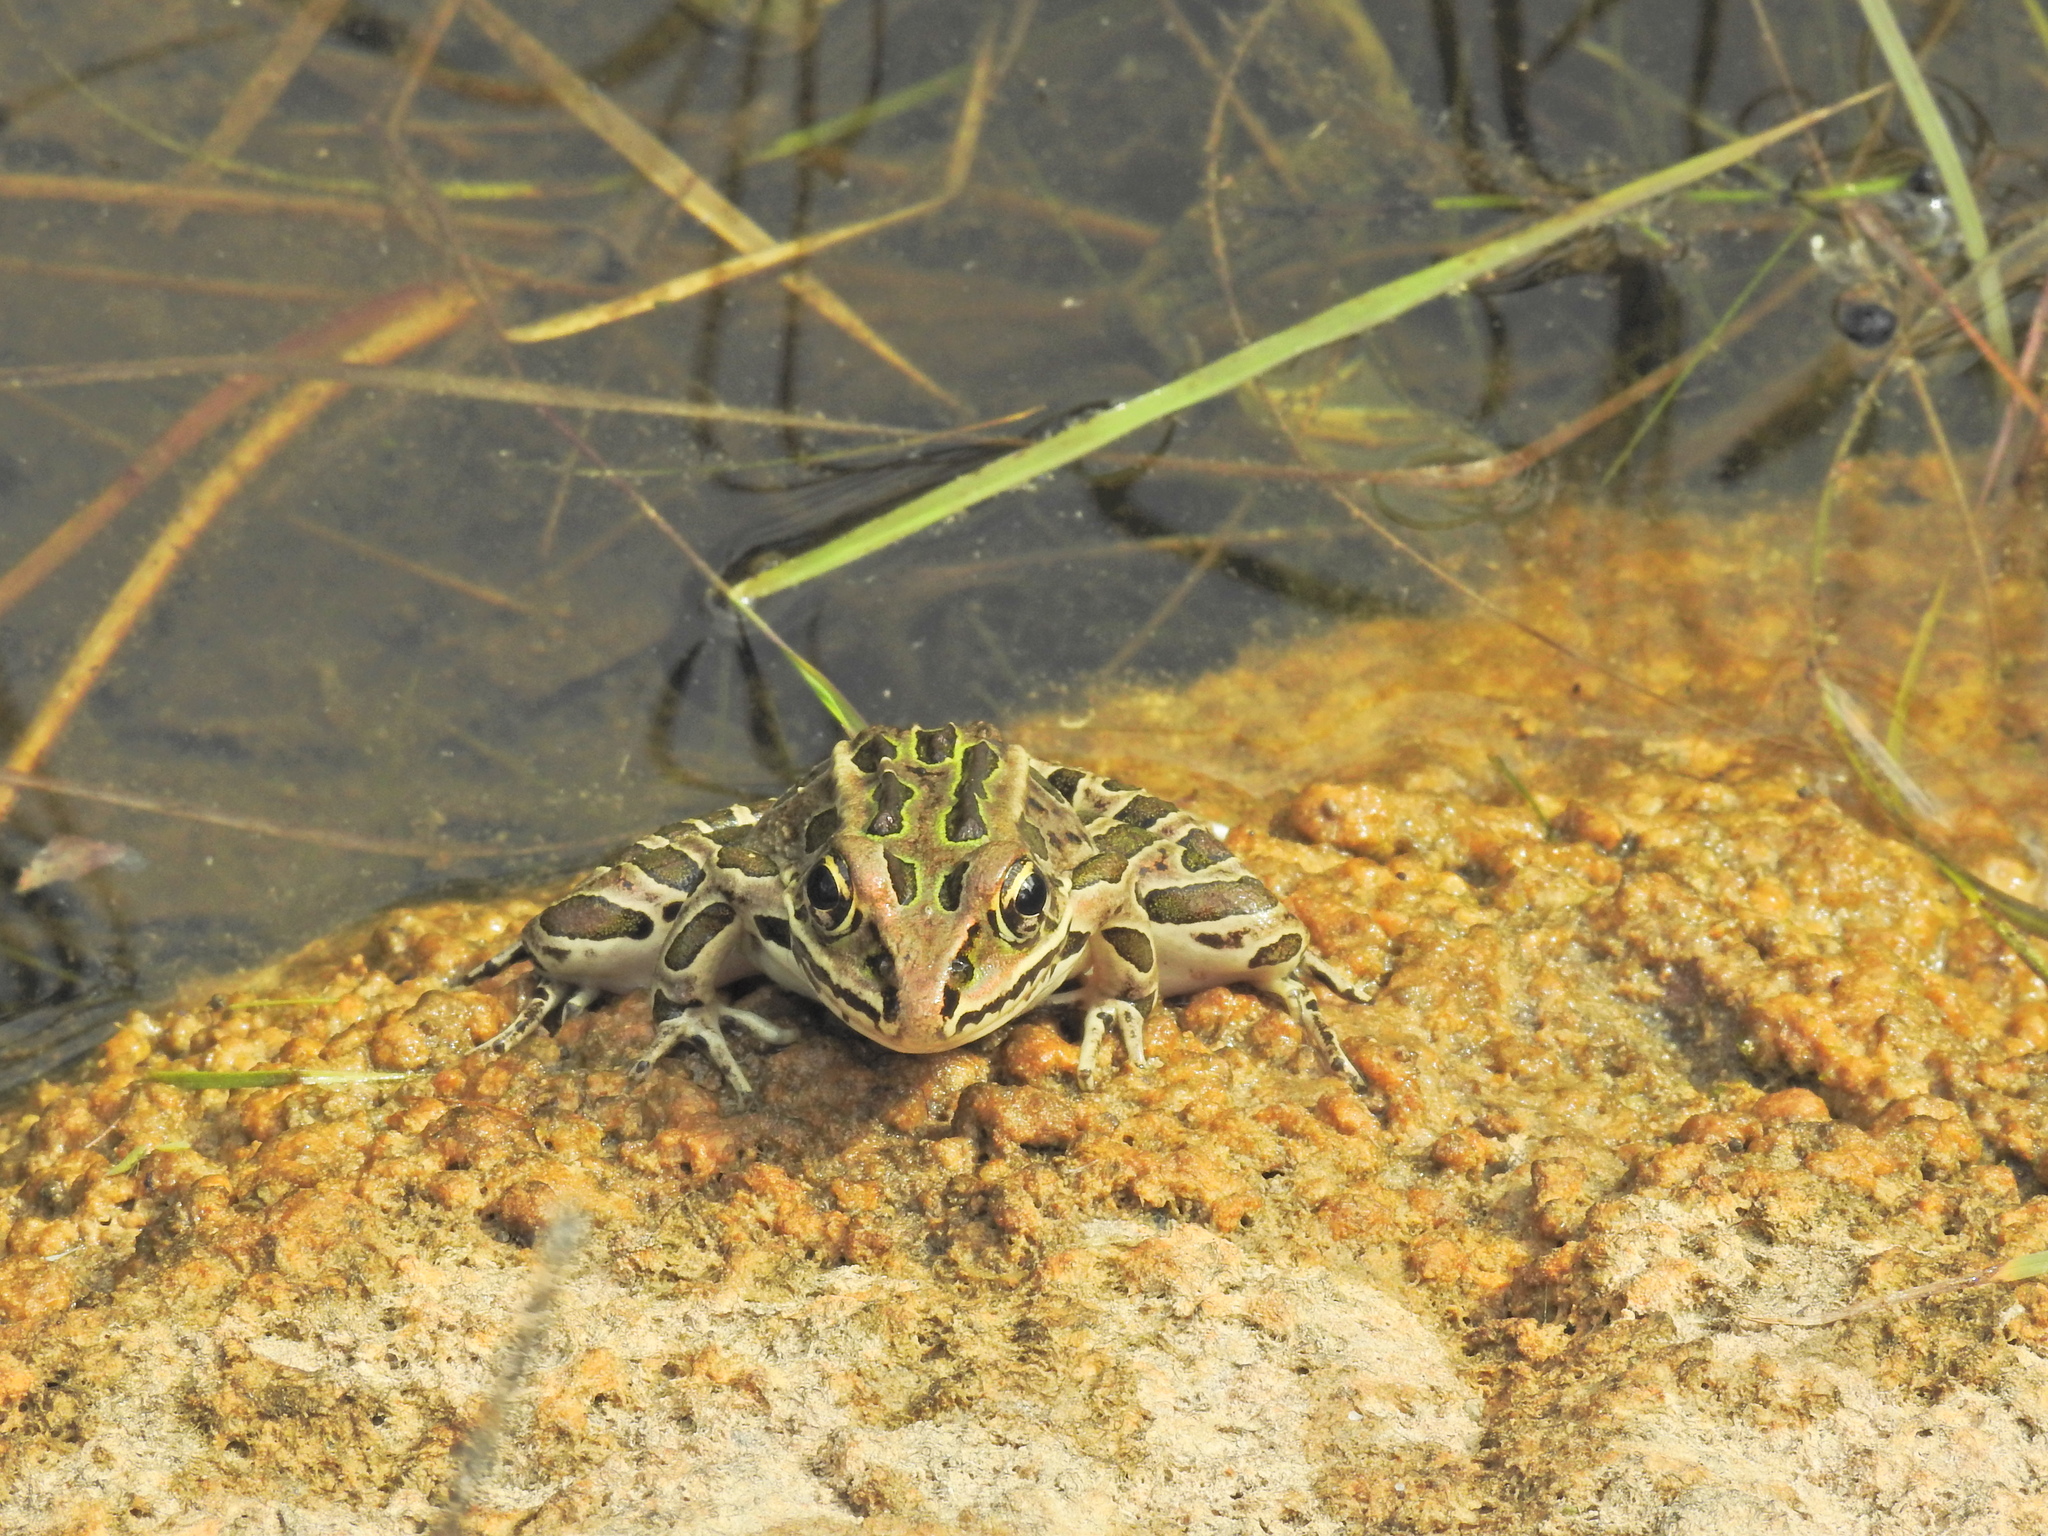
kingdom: Animalia
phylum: Chordata
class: Amphibia
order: Anura
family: Ranidae
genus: Lithobates
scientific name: Lithobates pipiens
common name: Northern leopard frog
